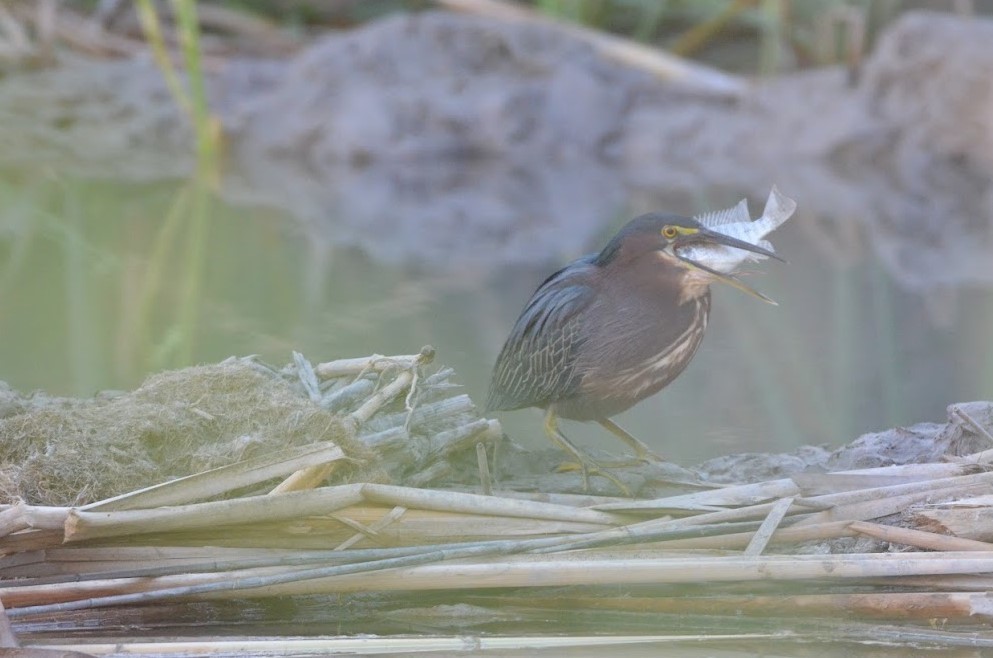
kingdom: Animalia
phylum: Chordata
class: Aves
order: Pelecaniformes
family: Ardeidae
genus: Butorides
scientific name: Butorides virescens
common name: Green heron
